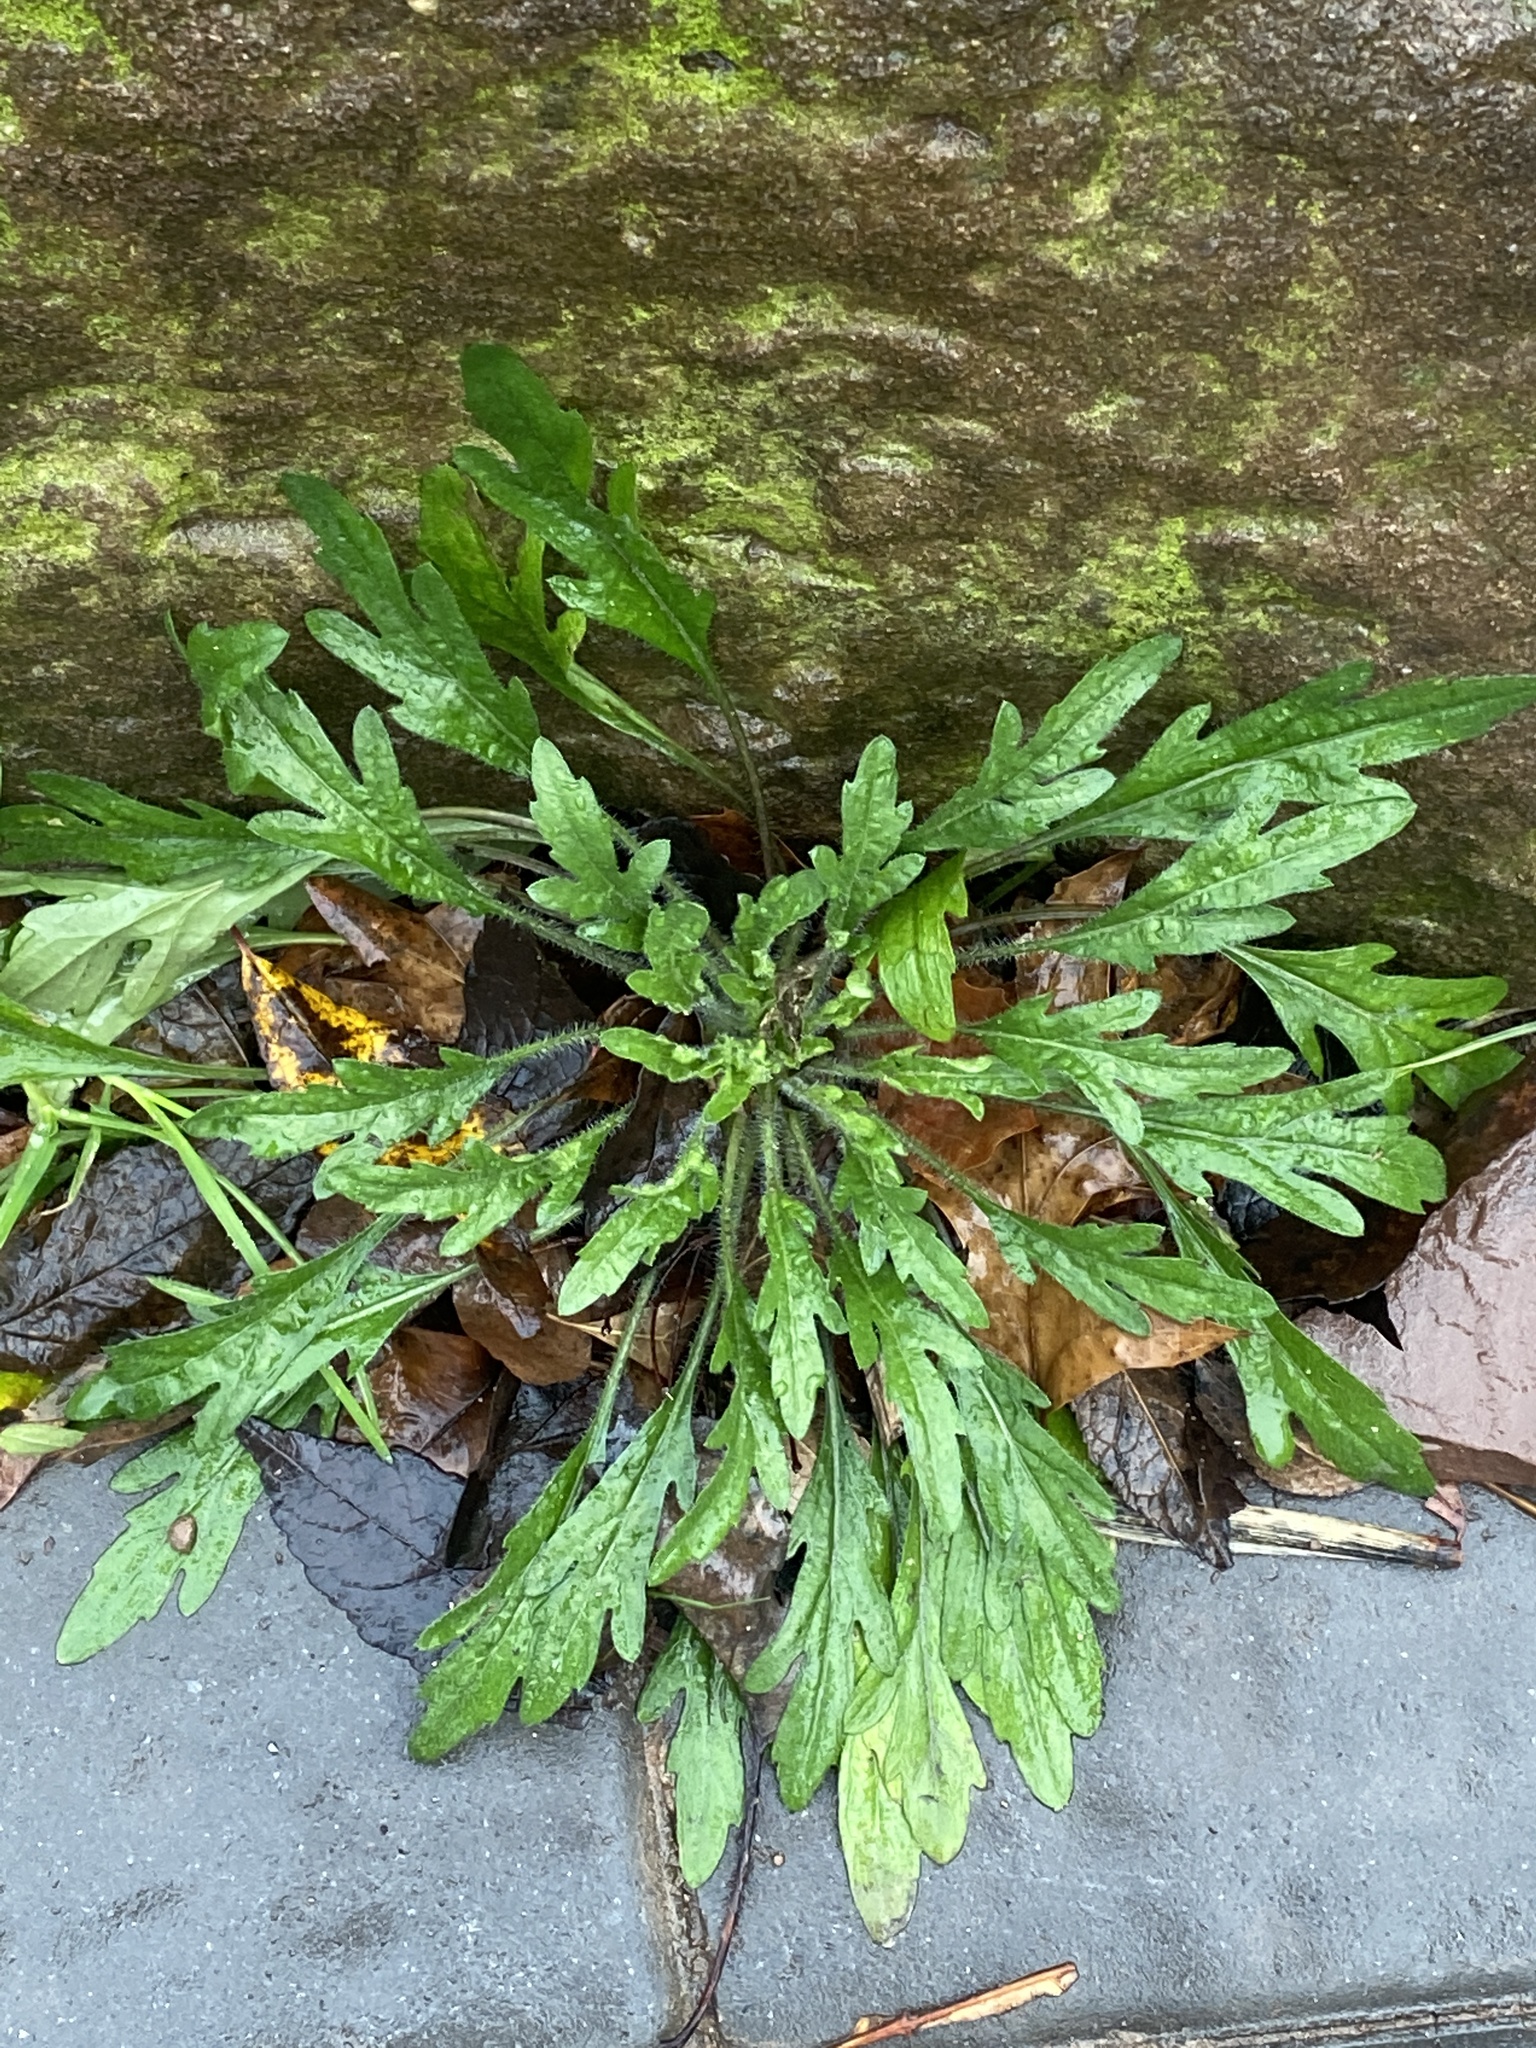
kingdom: Plantae
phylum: Tracheophyta
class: Magnoliopsida
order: Asterales
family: Asteraceae
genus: Erigeron
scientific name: Erigeron canadensis
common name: Canadian fleabane
